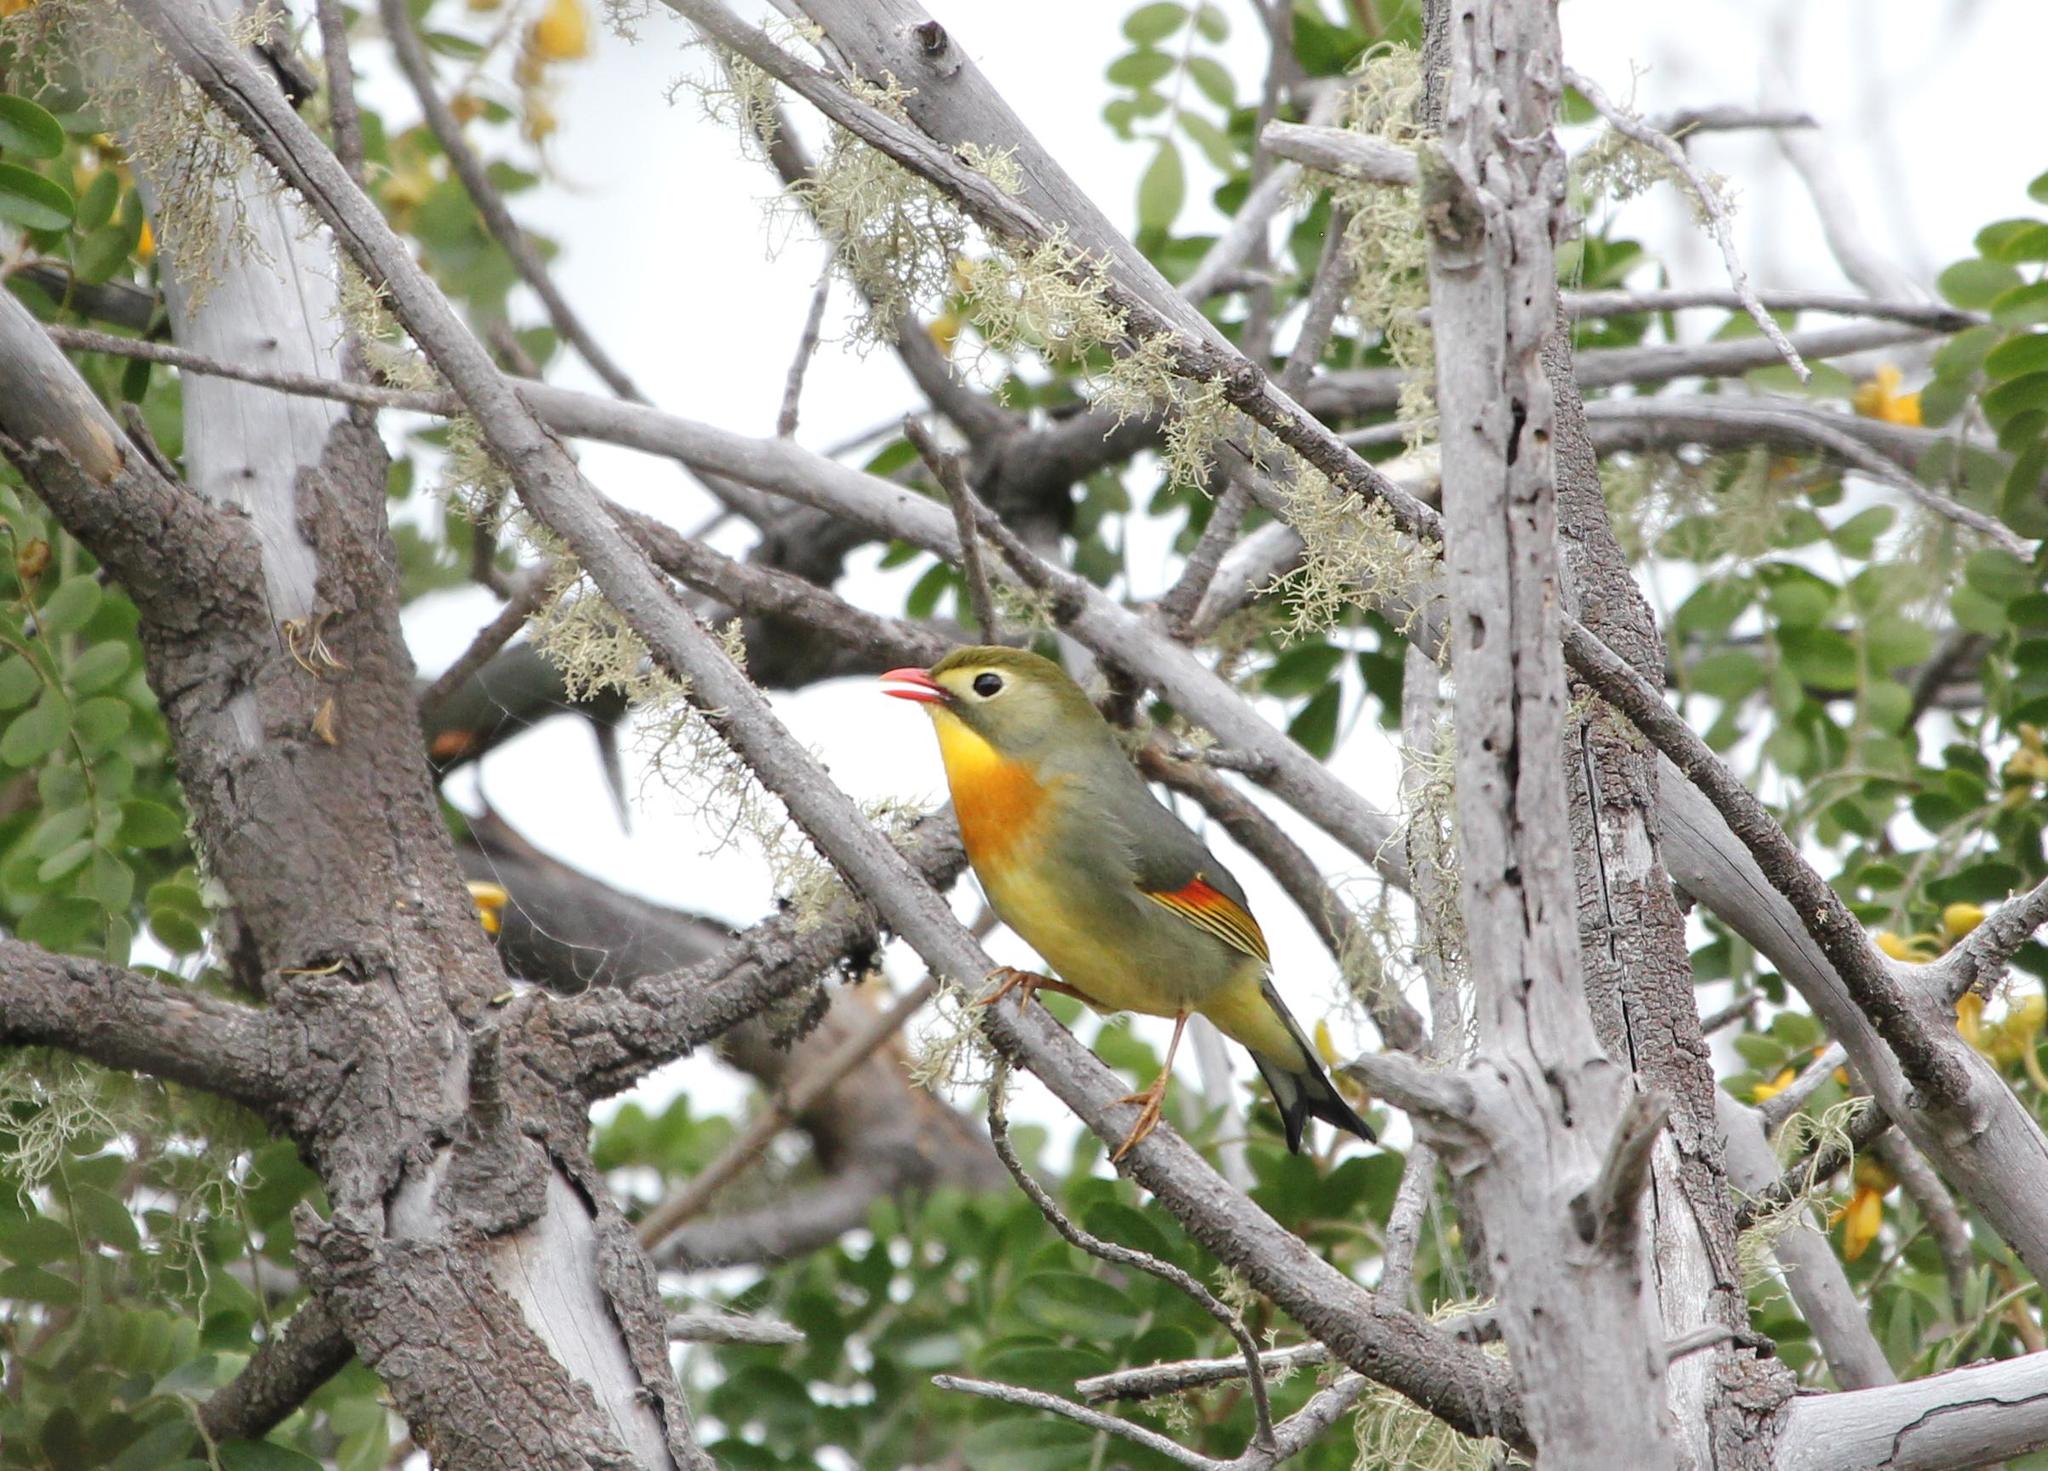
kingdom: Animalia
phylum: Chordata
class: Aves
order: Passeriformes
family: Leiothrichidae
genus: Leiothrix
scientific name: Leiothrix lutea
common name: Red-billed leiothrix
